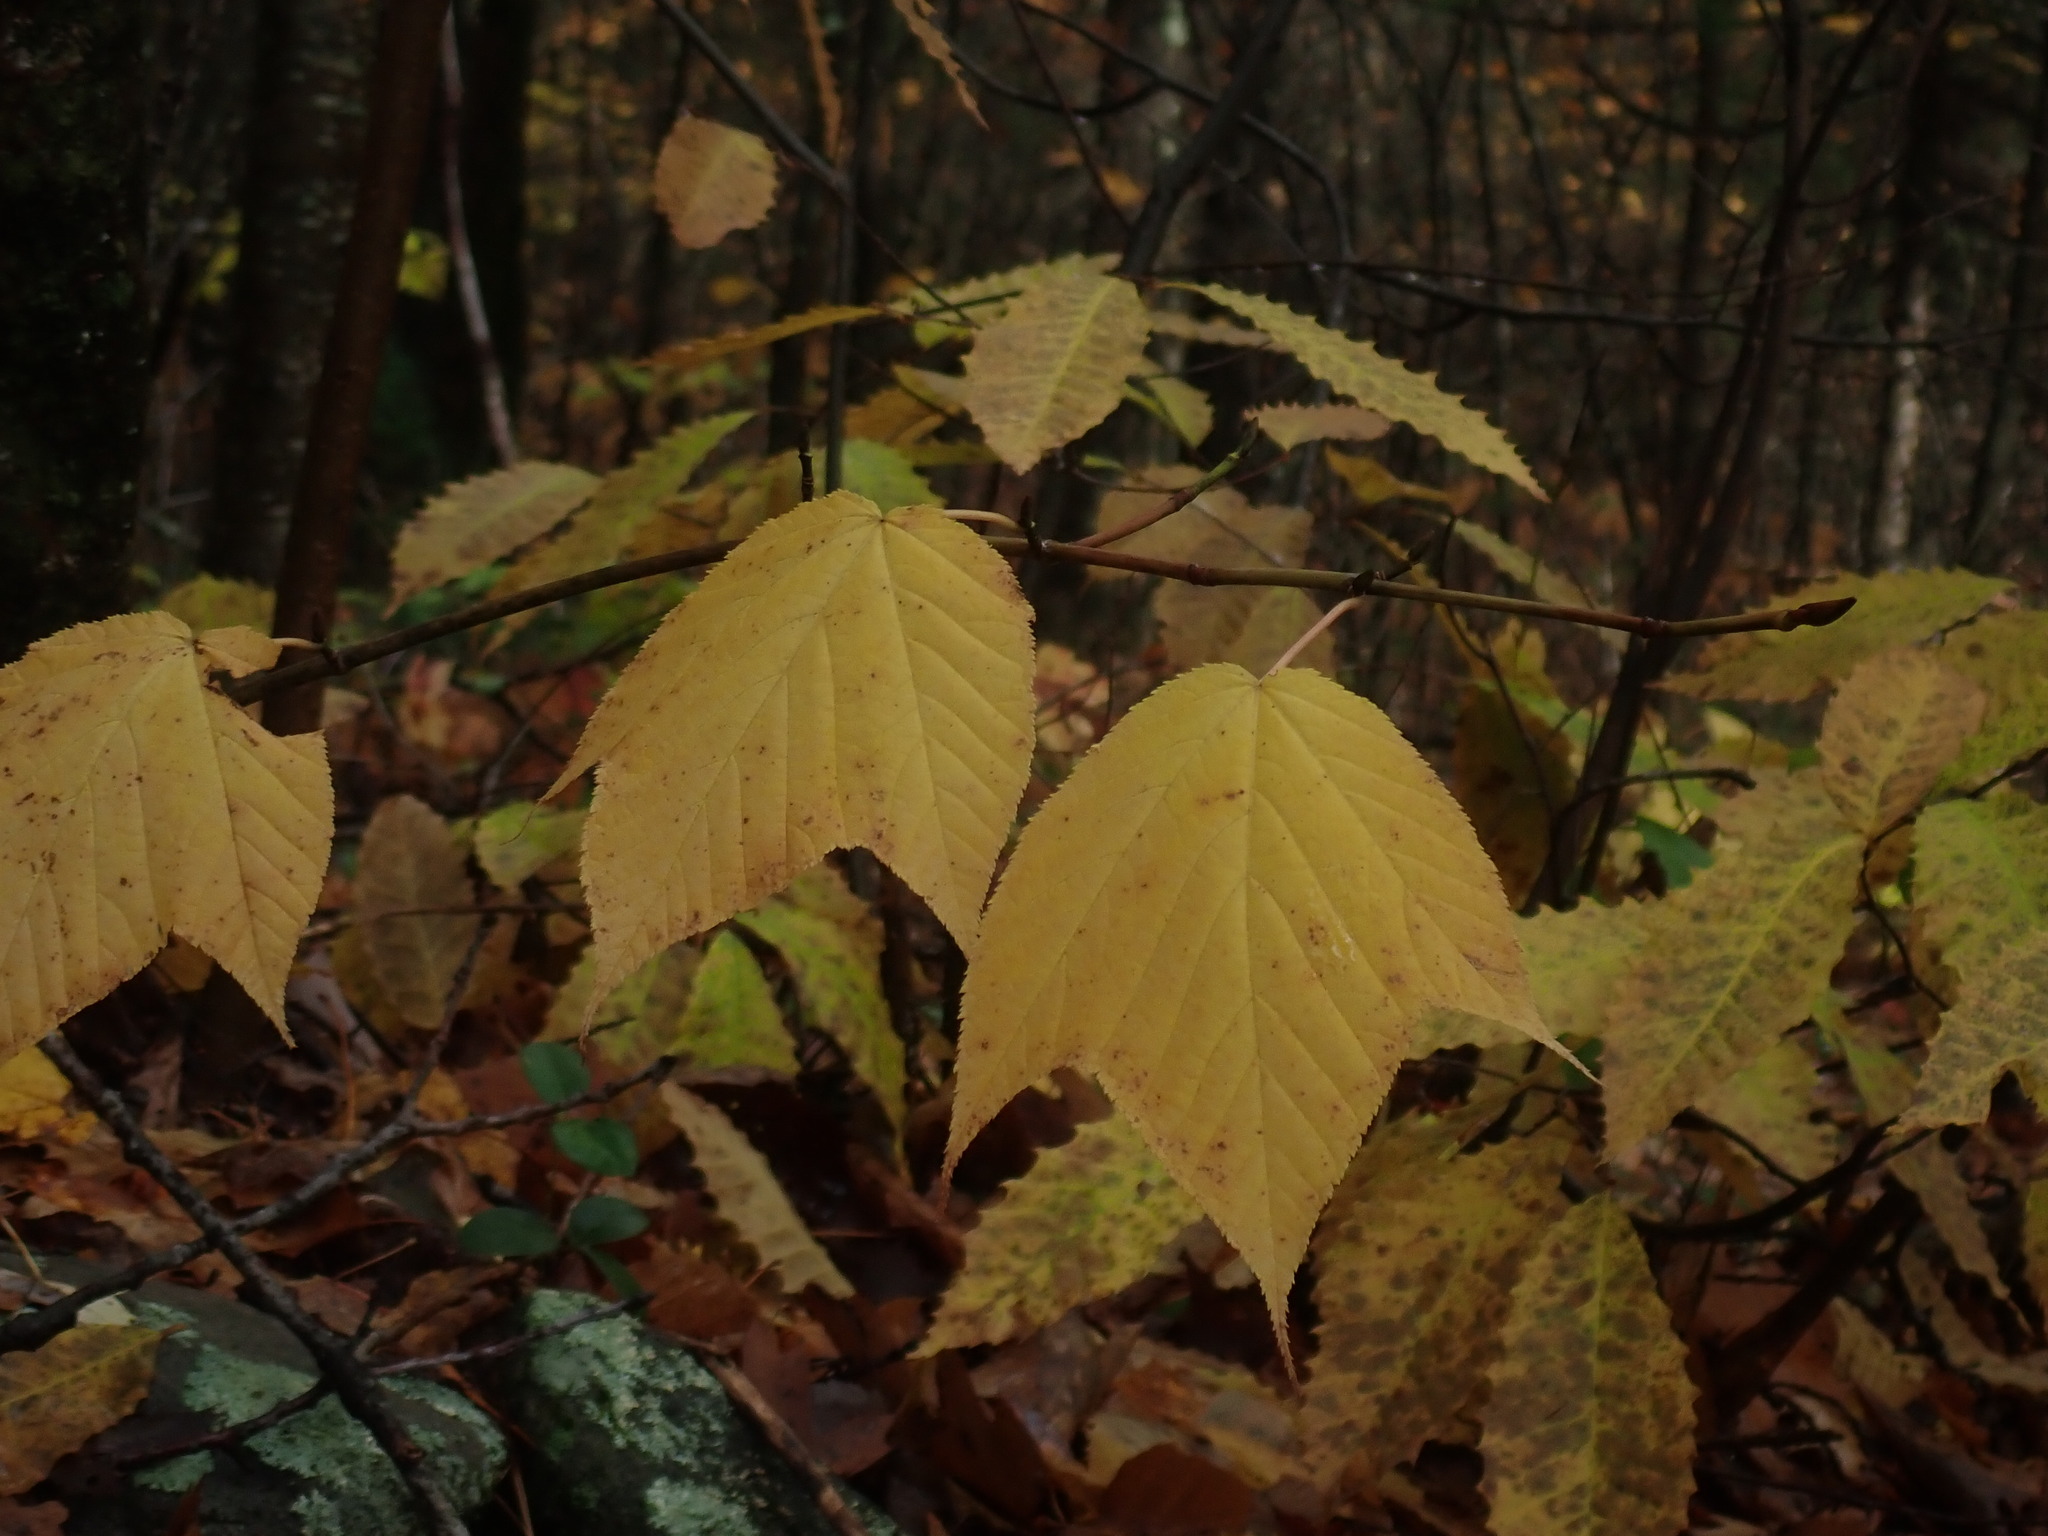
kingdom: Plantae
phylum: Tracheophyta
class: Magnoliopsida
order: Sapindales
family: Sapindaceae
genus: Acer
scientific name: Acer pensylvanicum
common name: Moosewood
